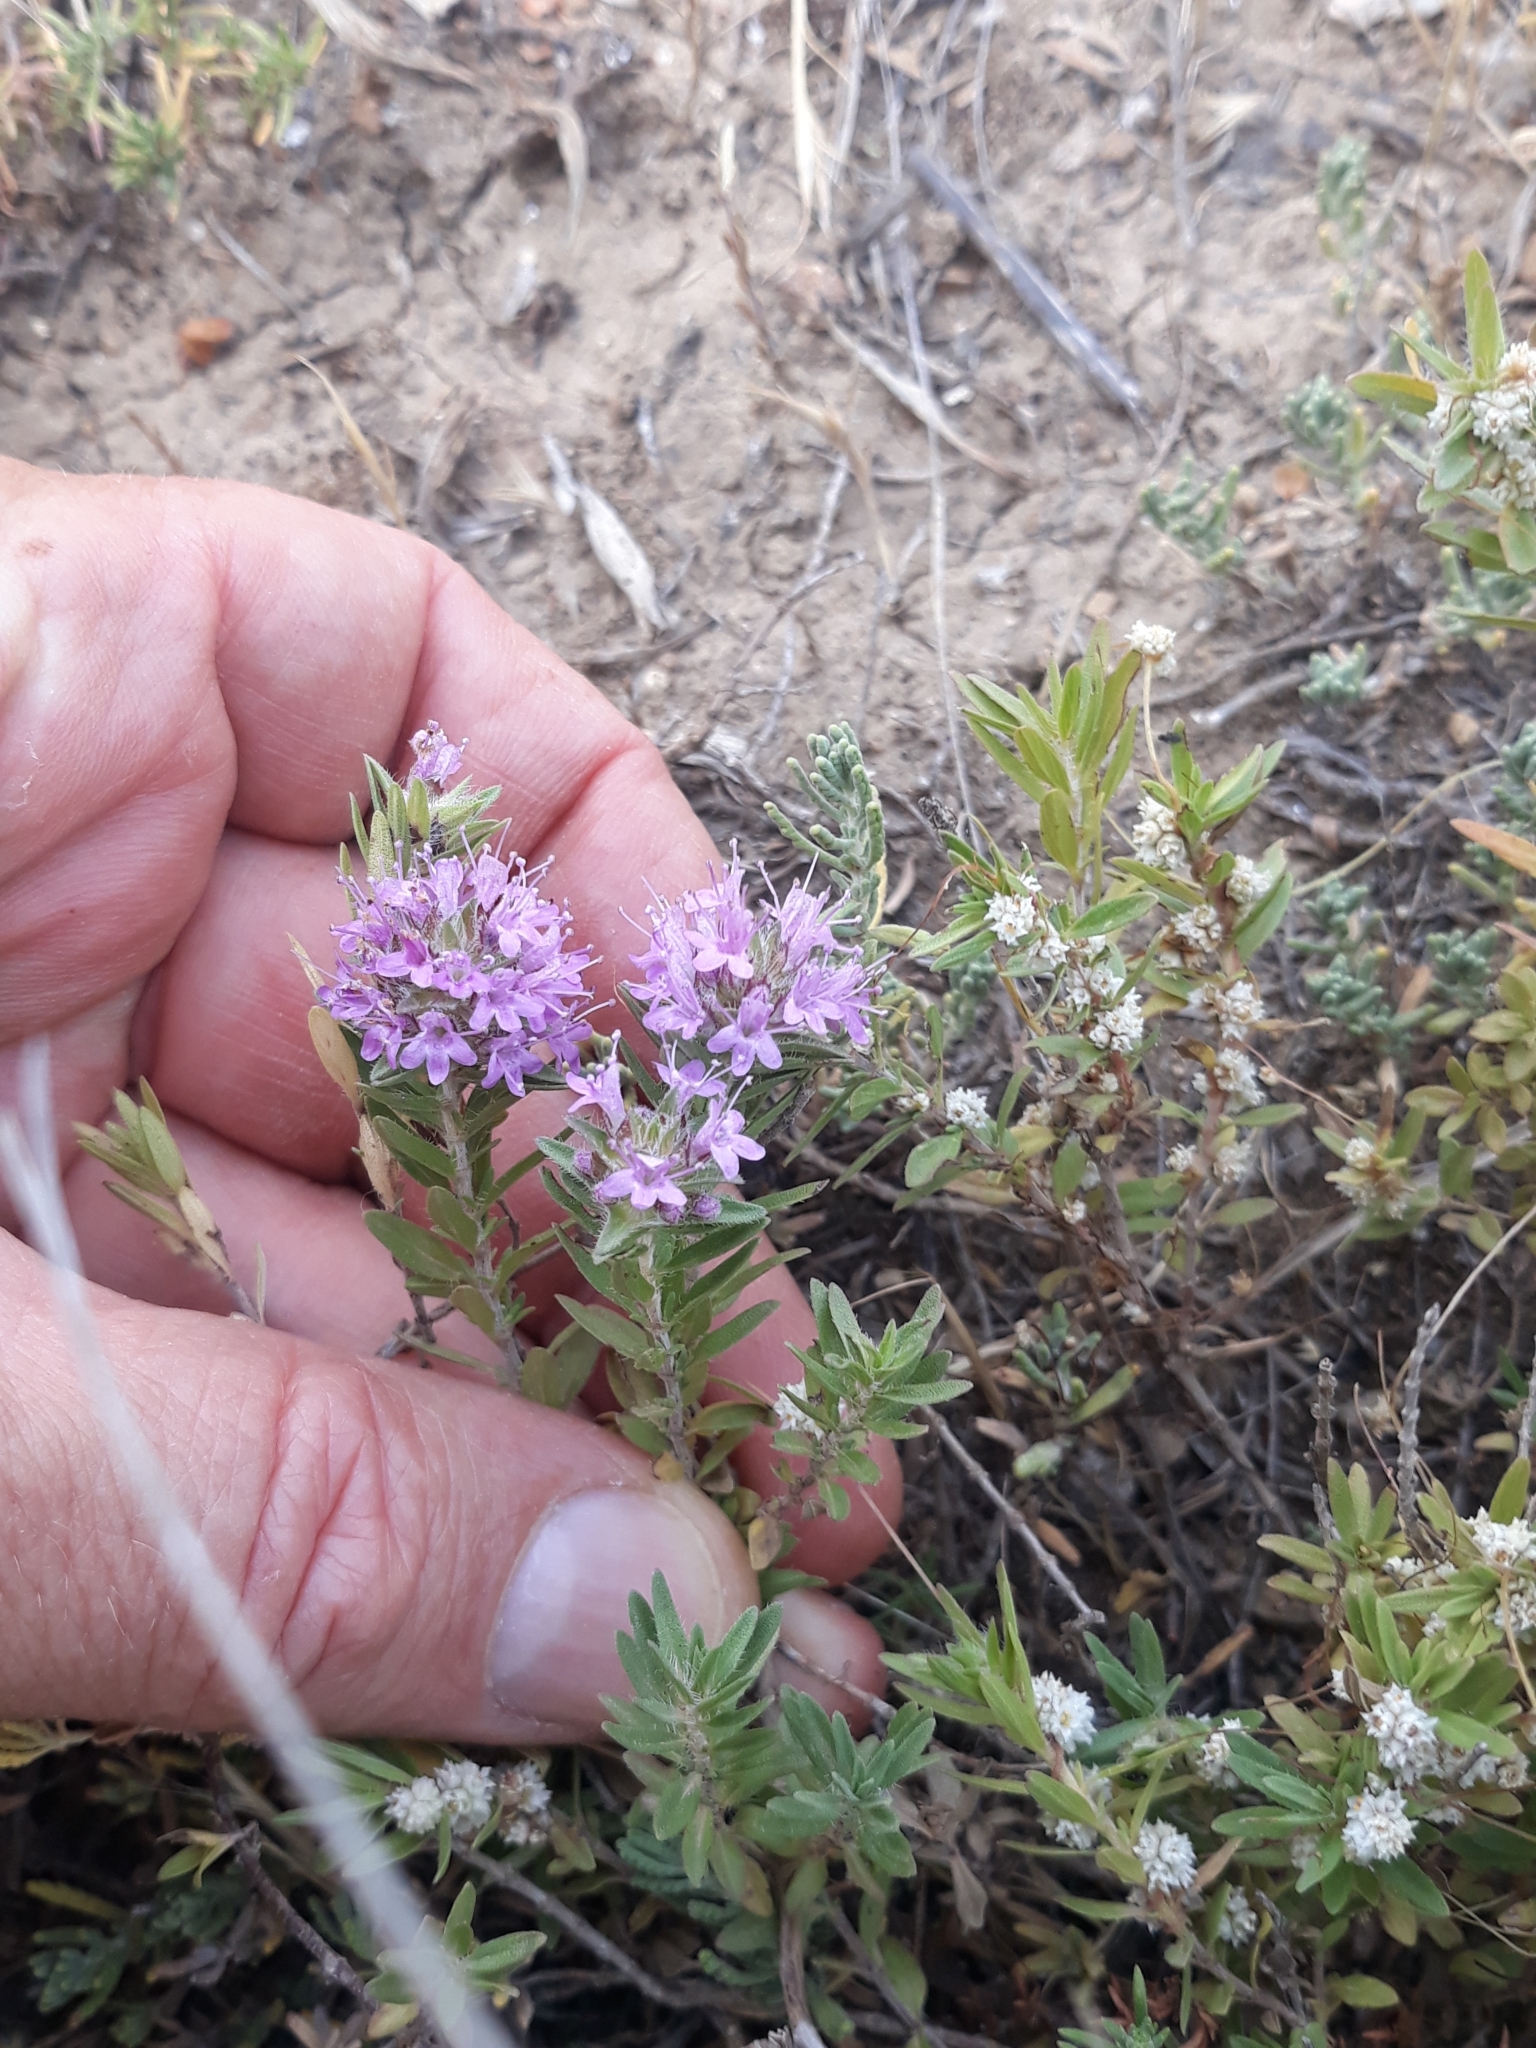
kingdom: Plantae
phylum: Tracheophyta
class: Magnoliopsida
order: Lamiales
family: Lamiaceae
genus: Thymus
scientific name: Thymus numidicus
